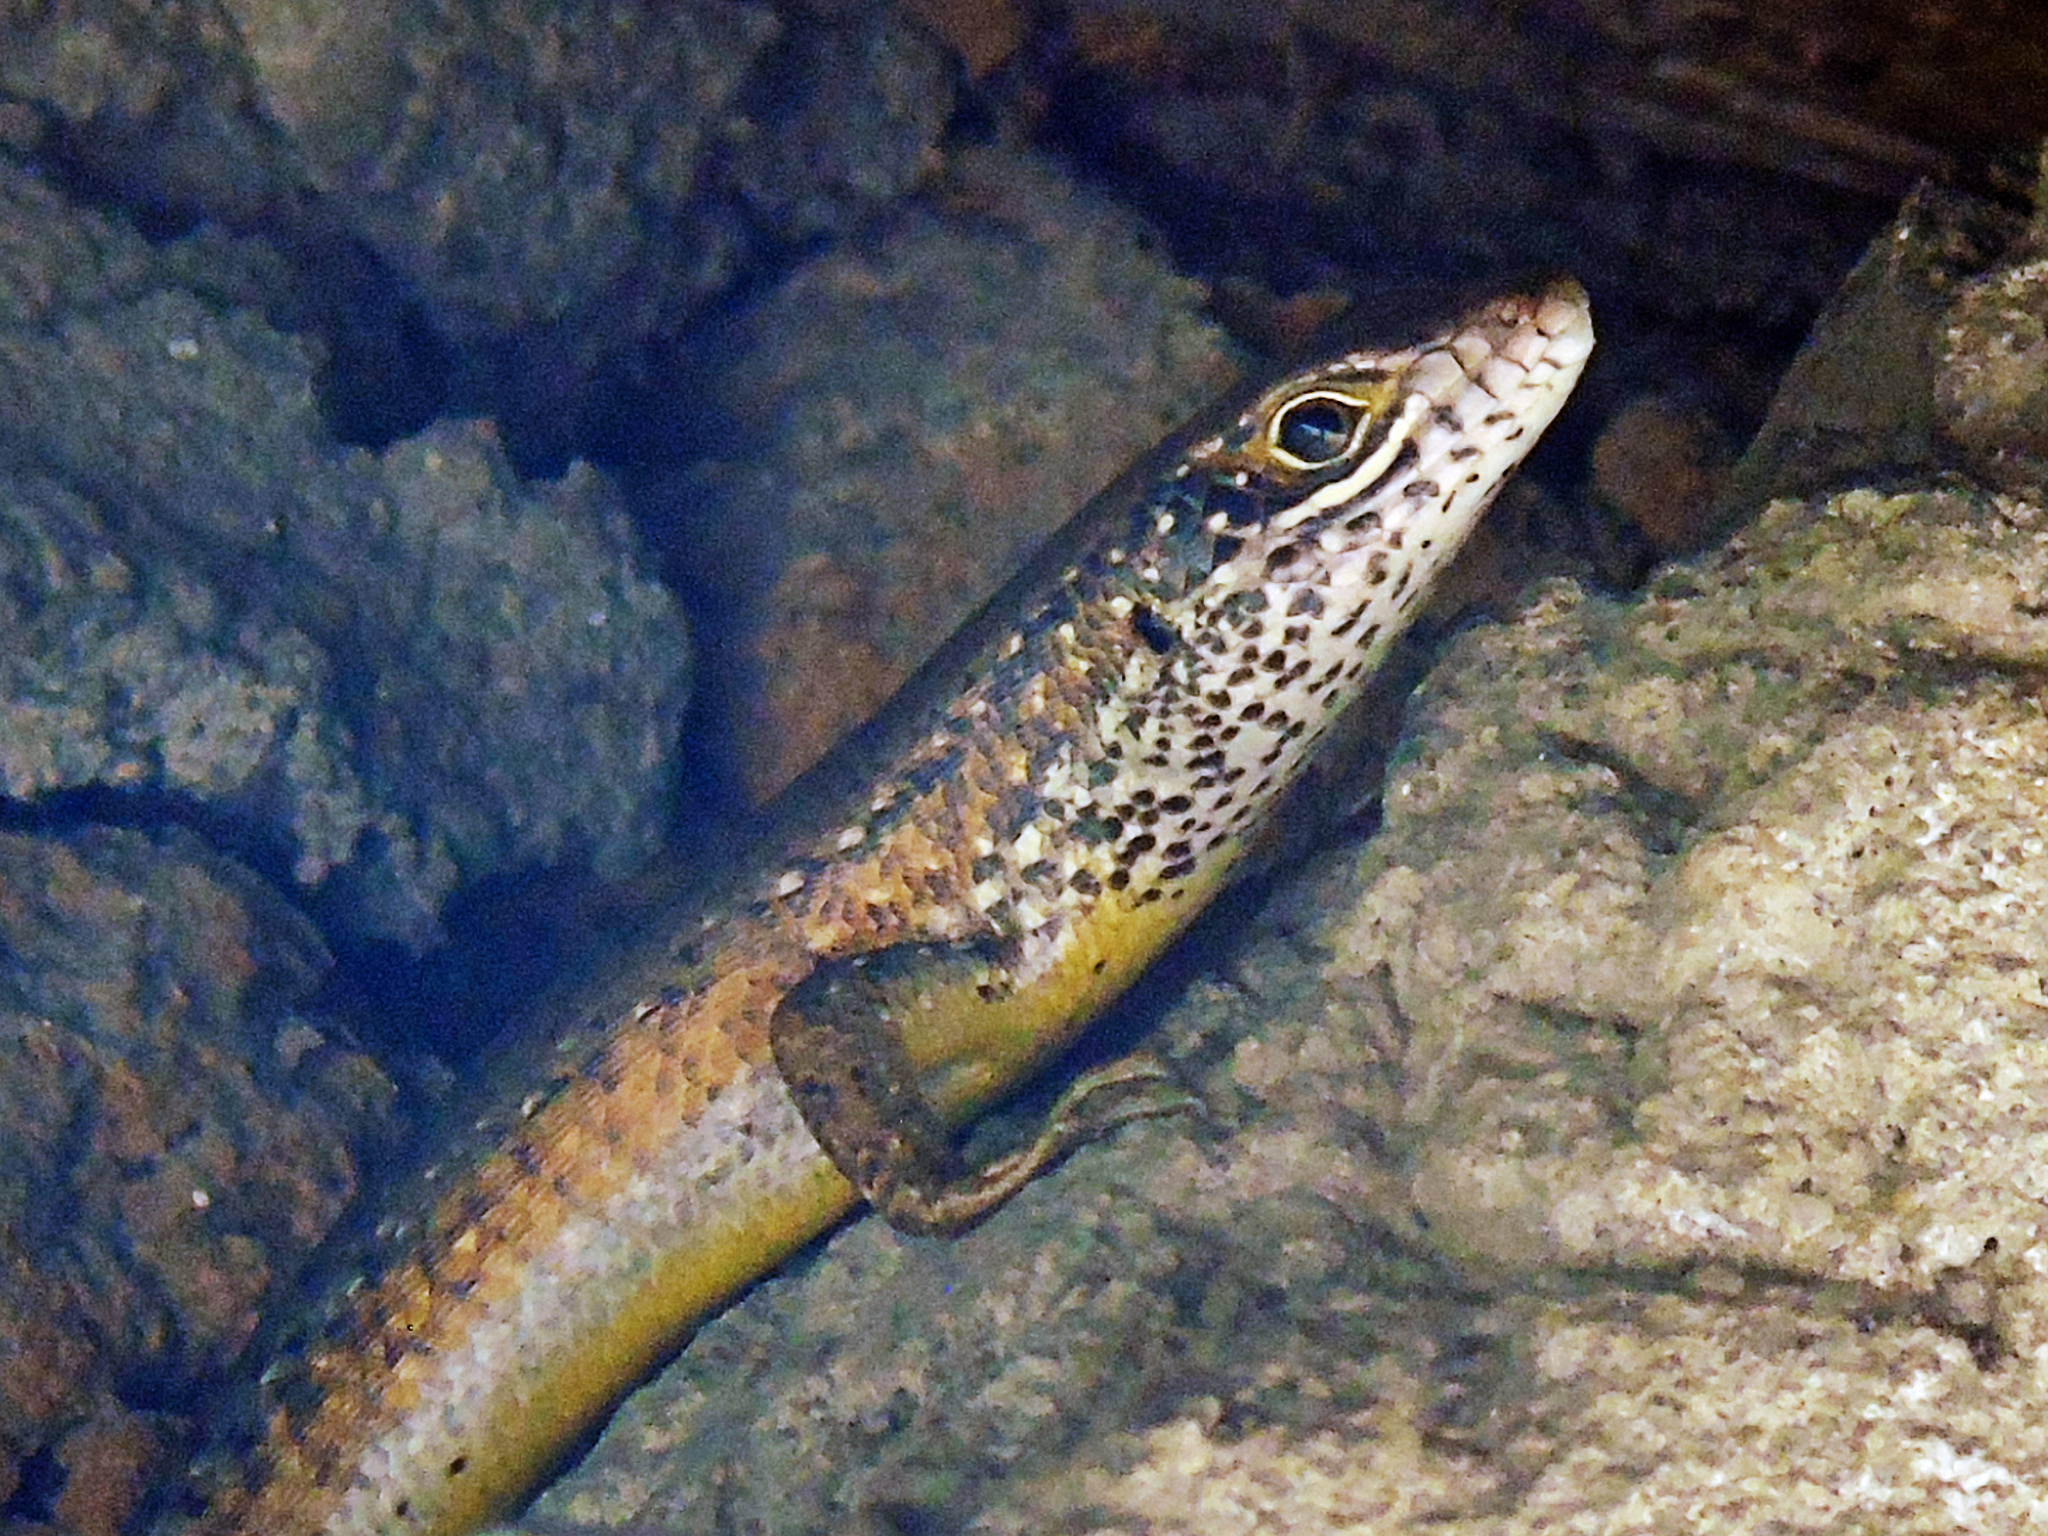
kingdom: Animalia
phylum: Chordata
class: Squamata
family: Scincidae
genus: Trachylepis
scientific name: Trachylepis maculilabris
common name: Speckle-lipped mabuya
